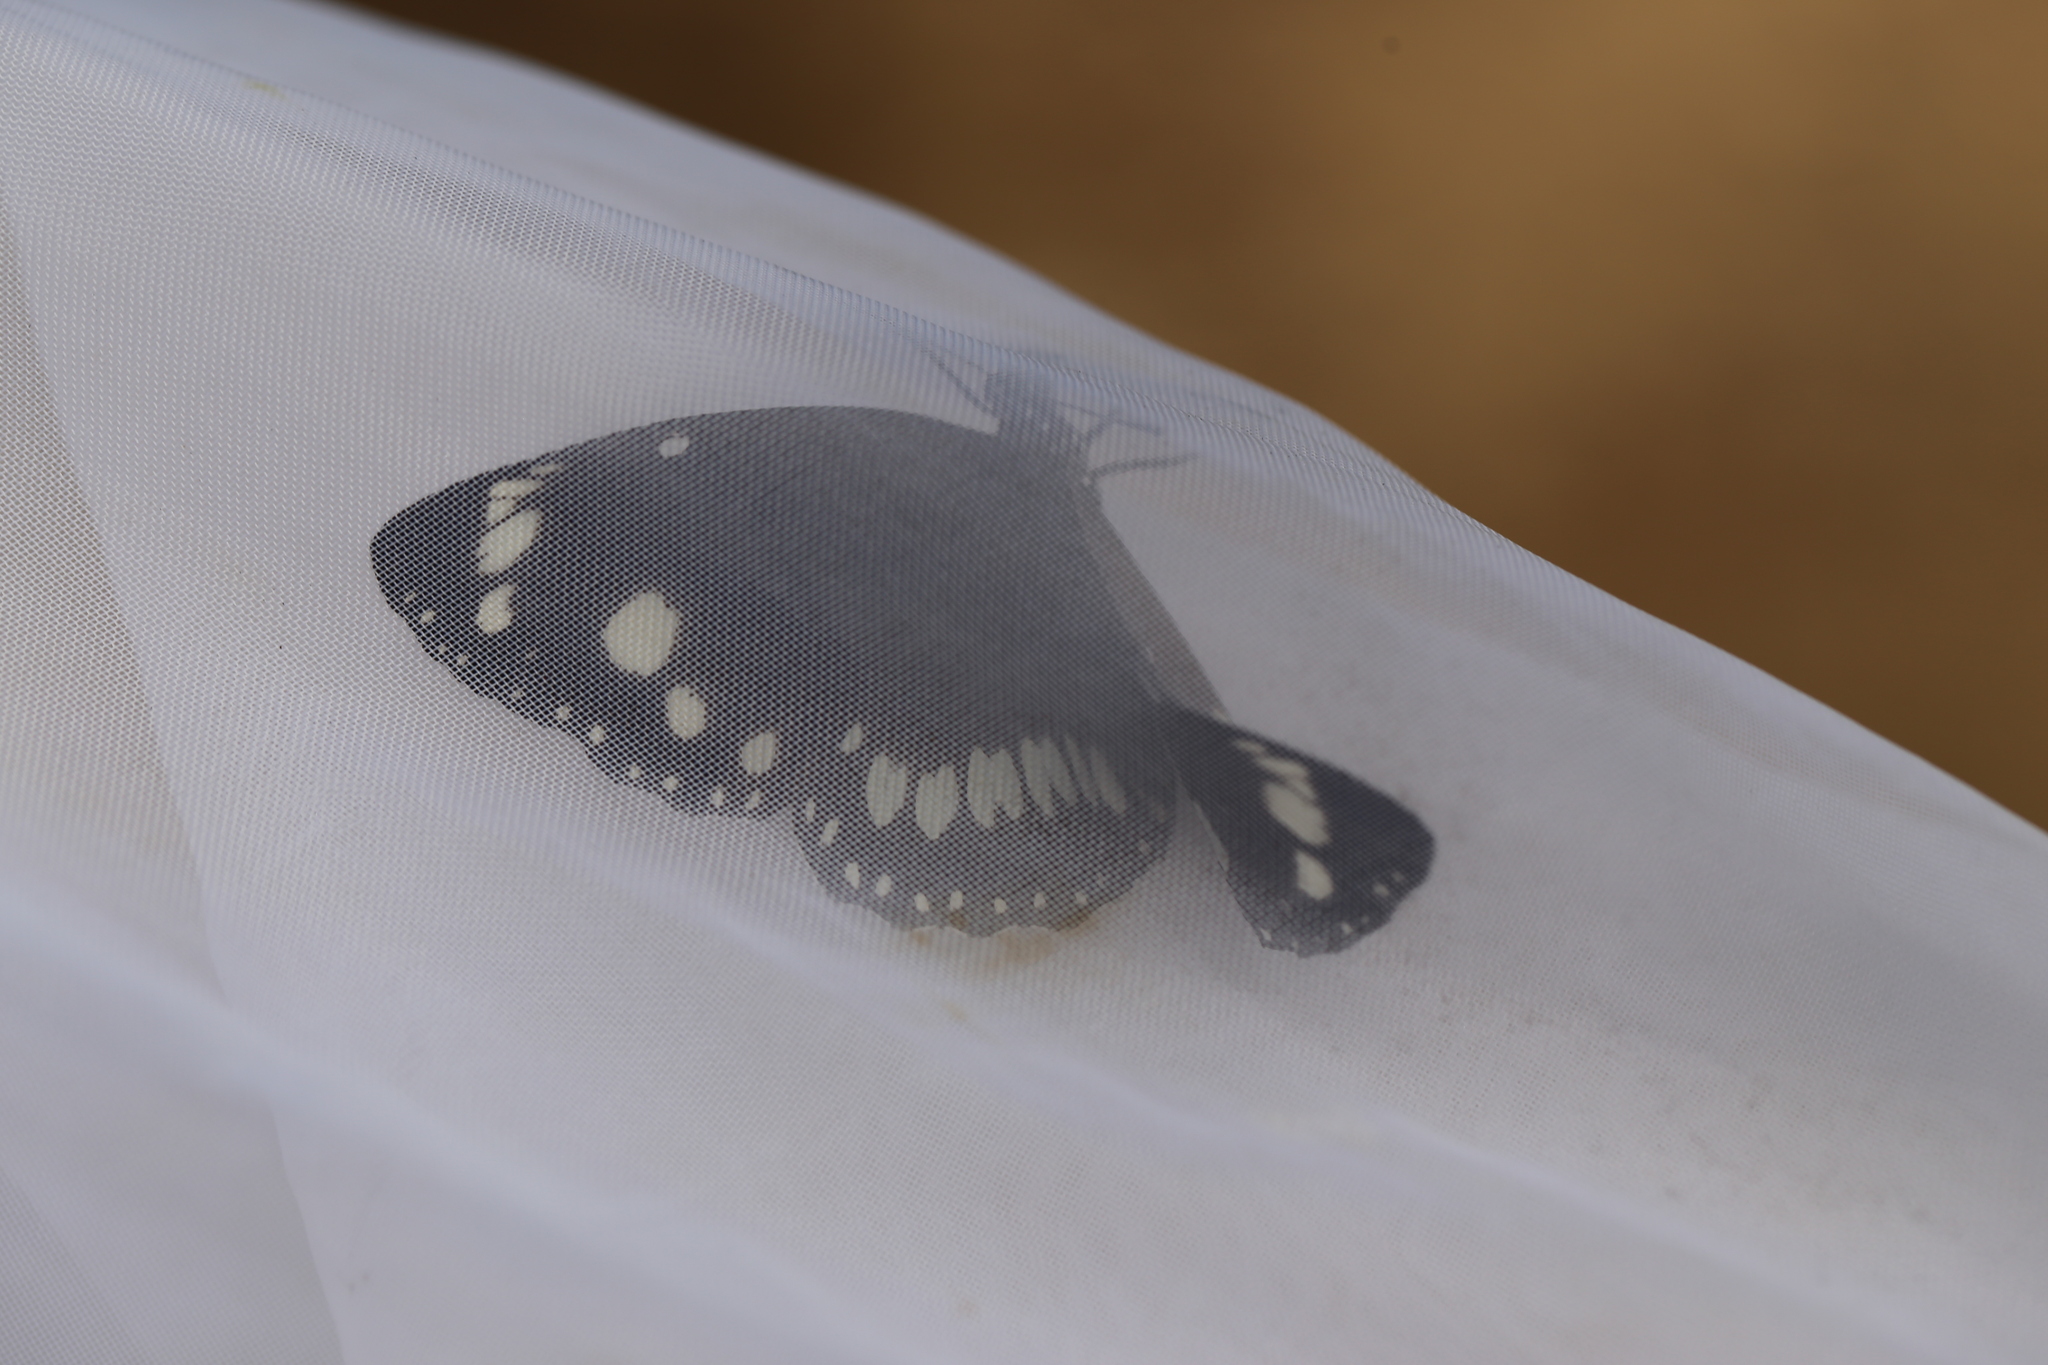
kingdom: Animalia
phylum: Arthropoda
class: Insecta
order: Lepidoptera
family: Nymphalidae
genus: Euploea
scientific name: Euploea core
